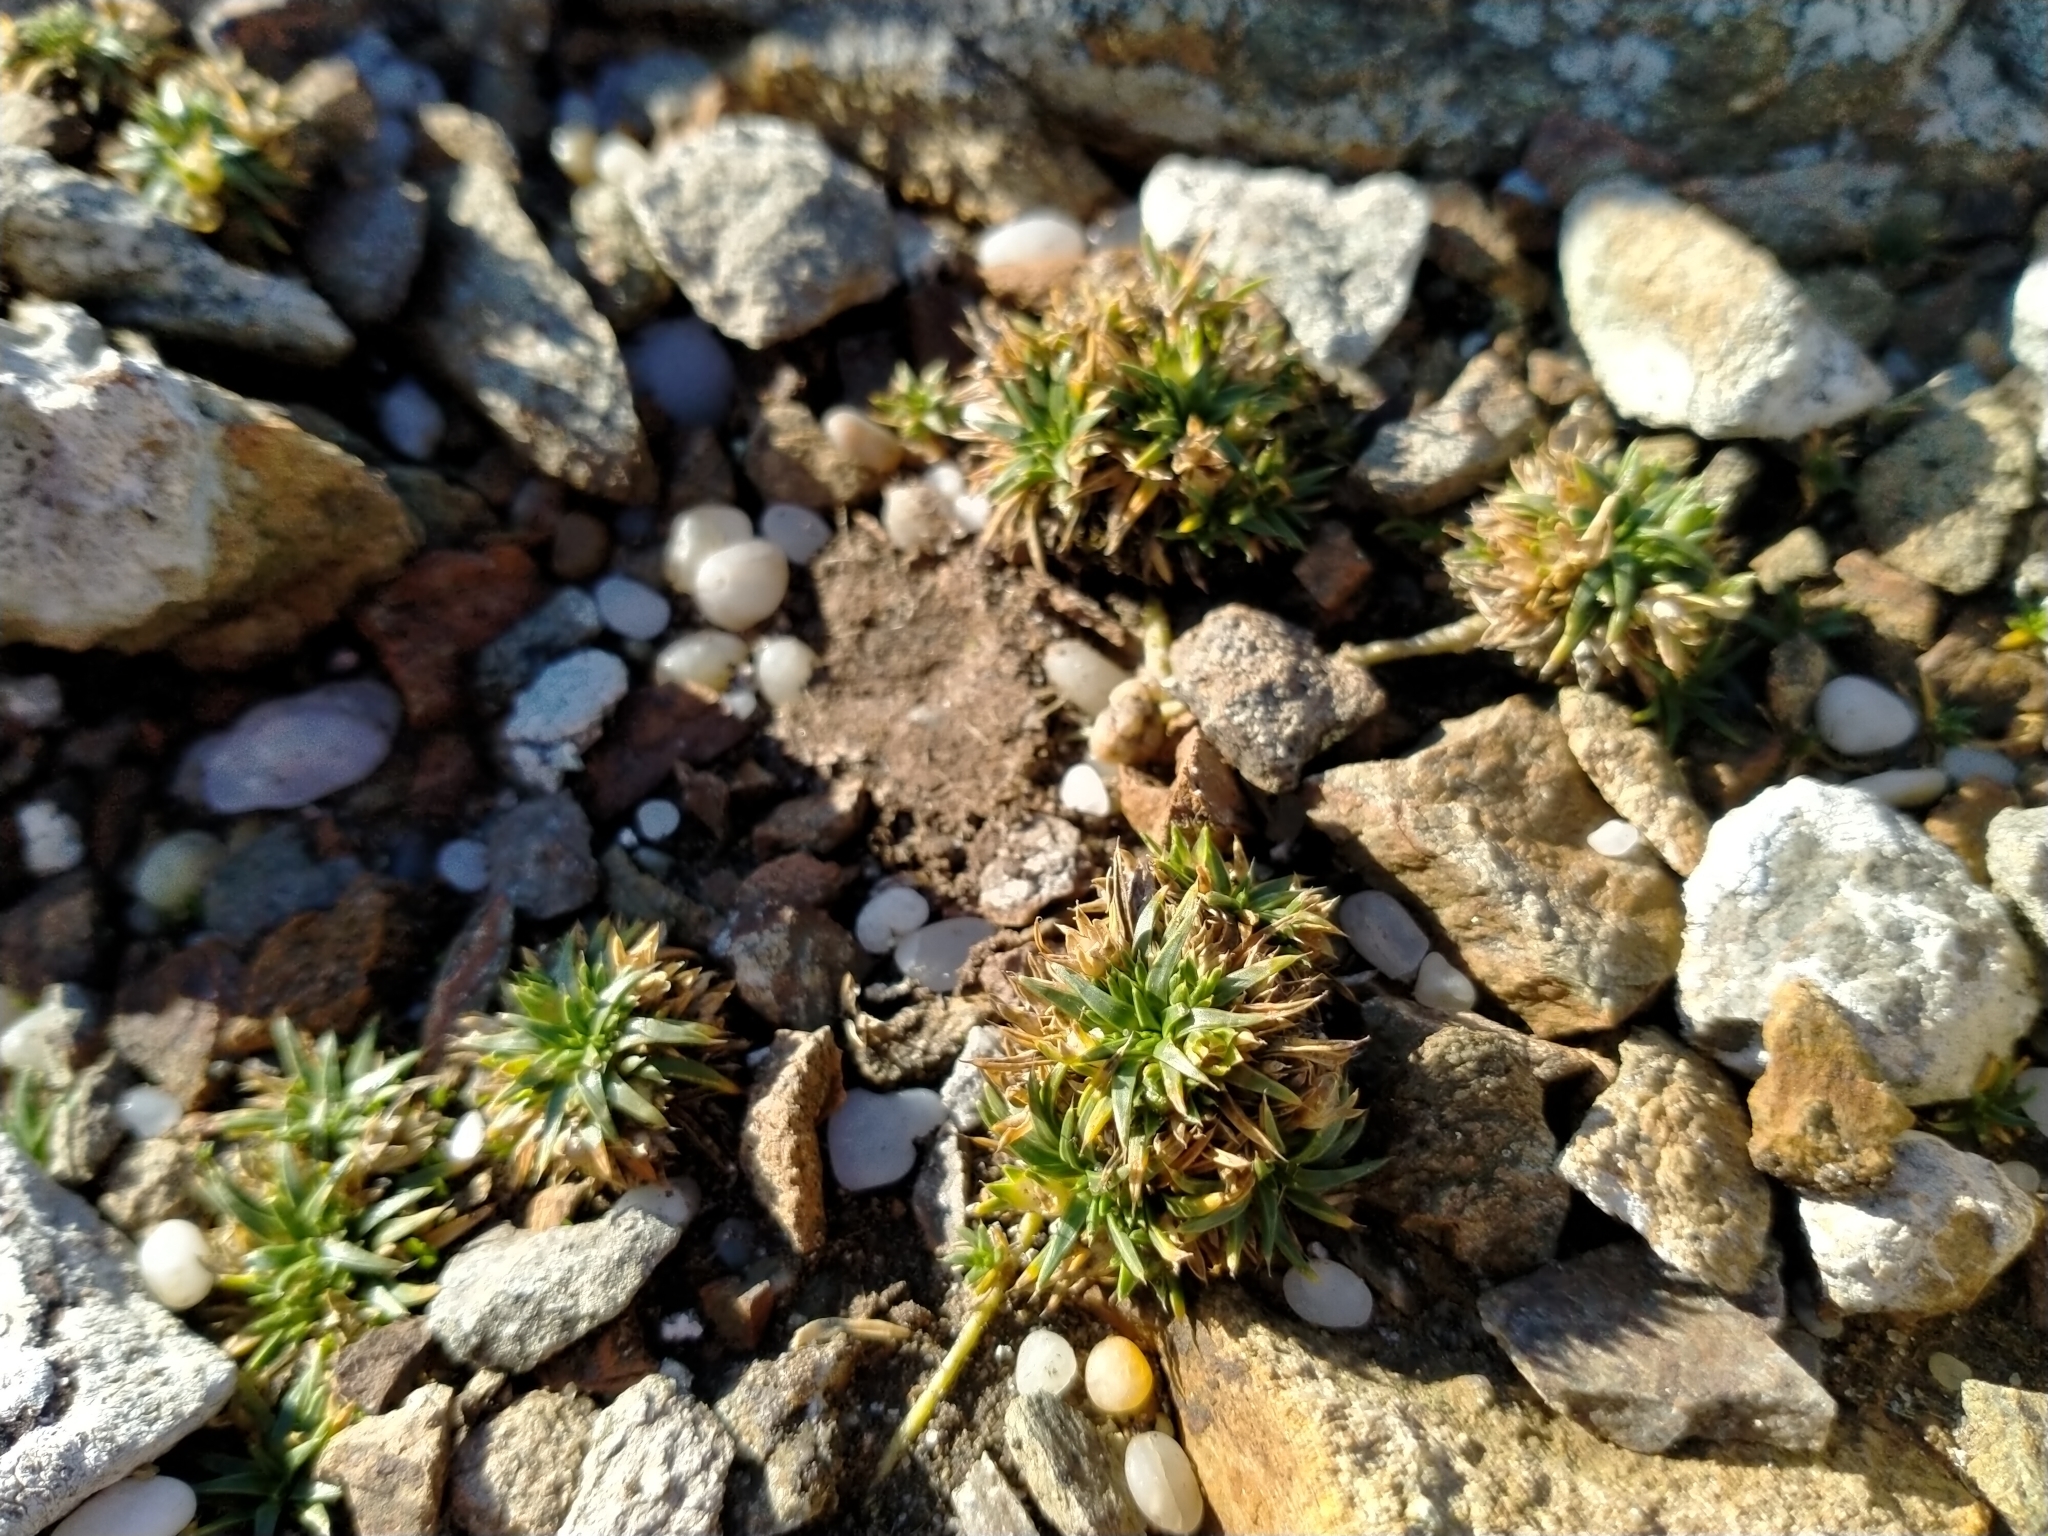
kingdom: Plantae
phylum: Tracheophyta
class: Magnoliopsida
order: Caryophyllales
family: Caryophyllaceae
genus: Colobanthus
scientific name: Colobanthus muelleri
